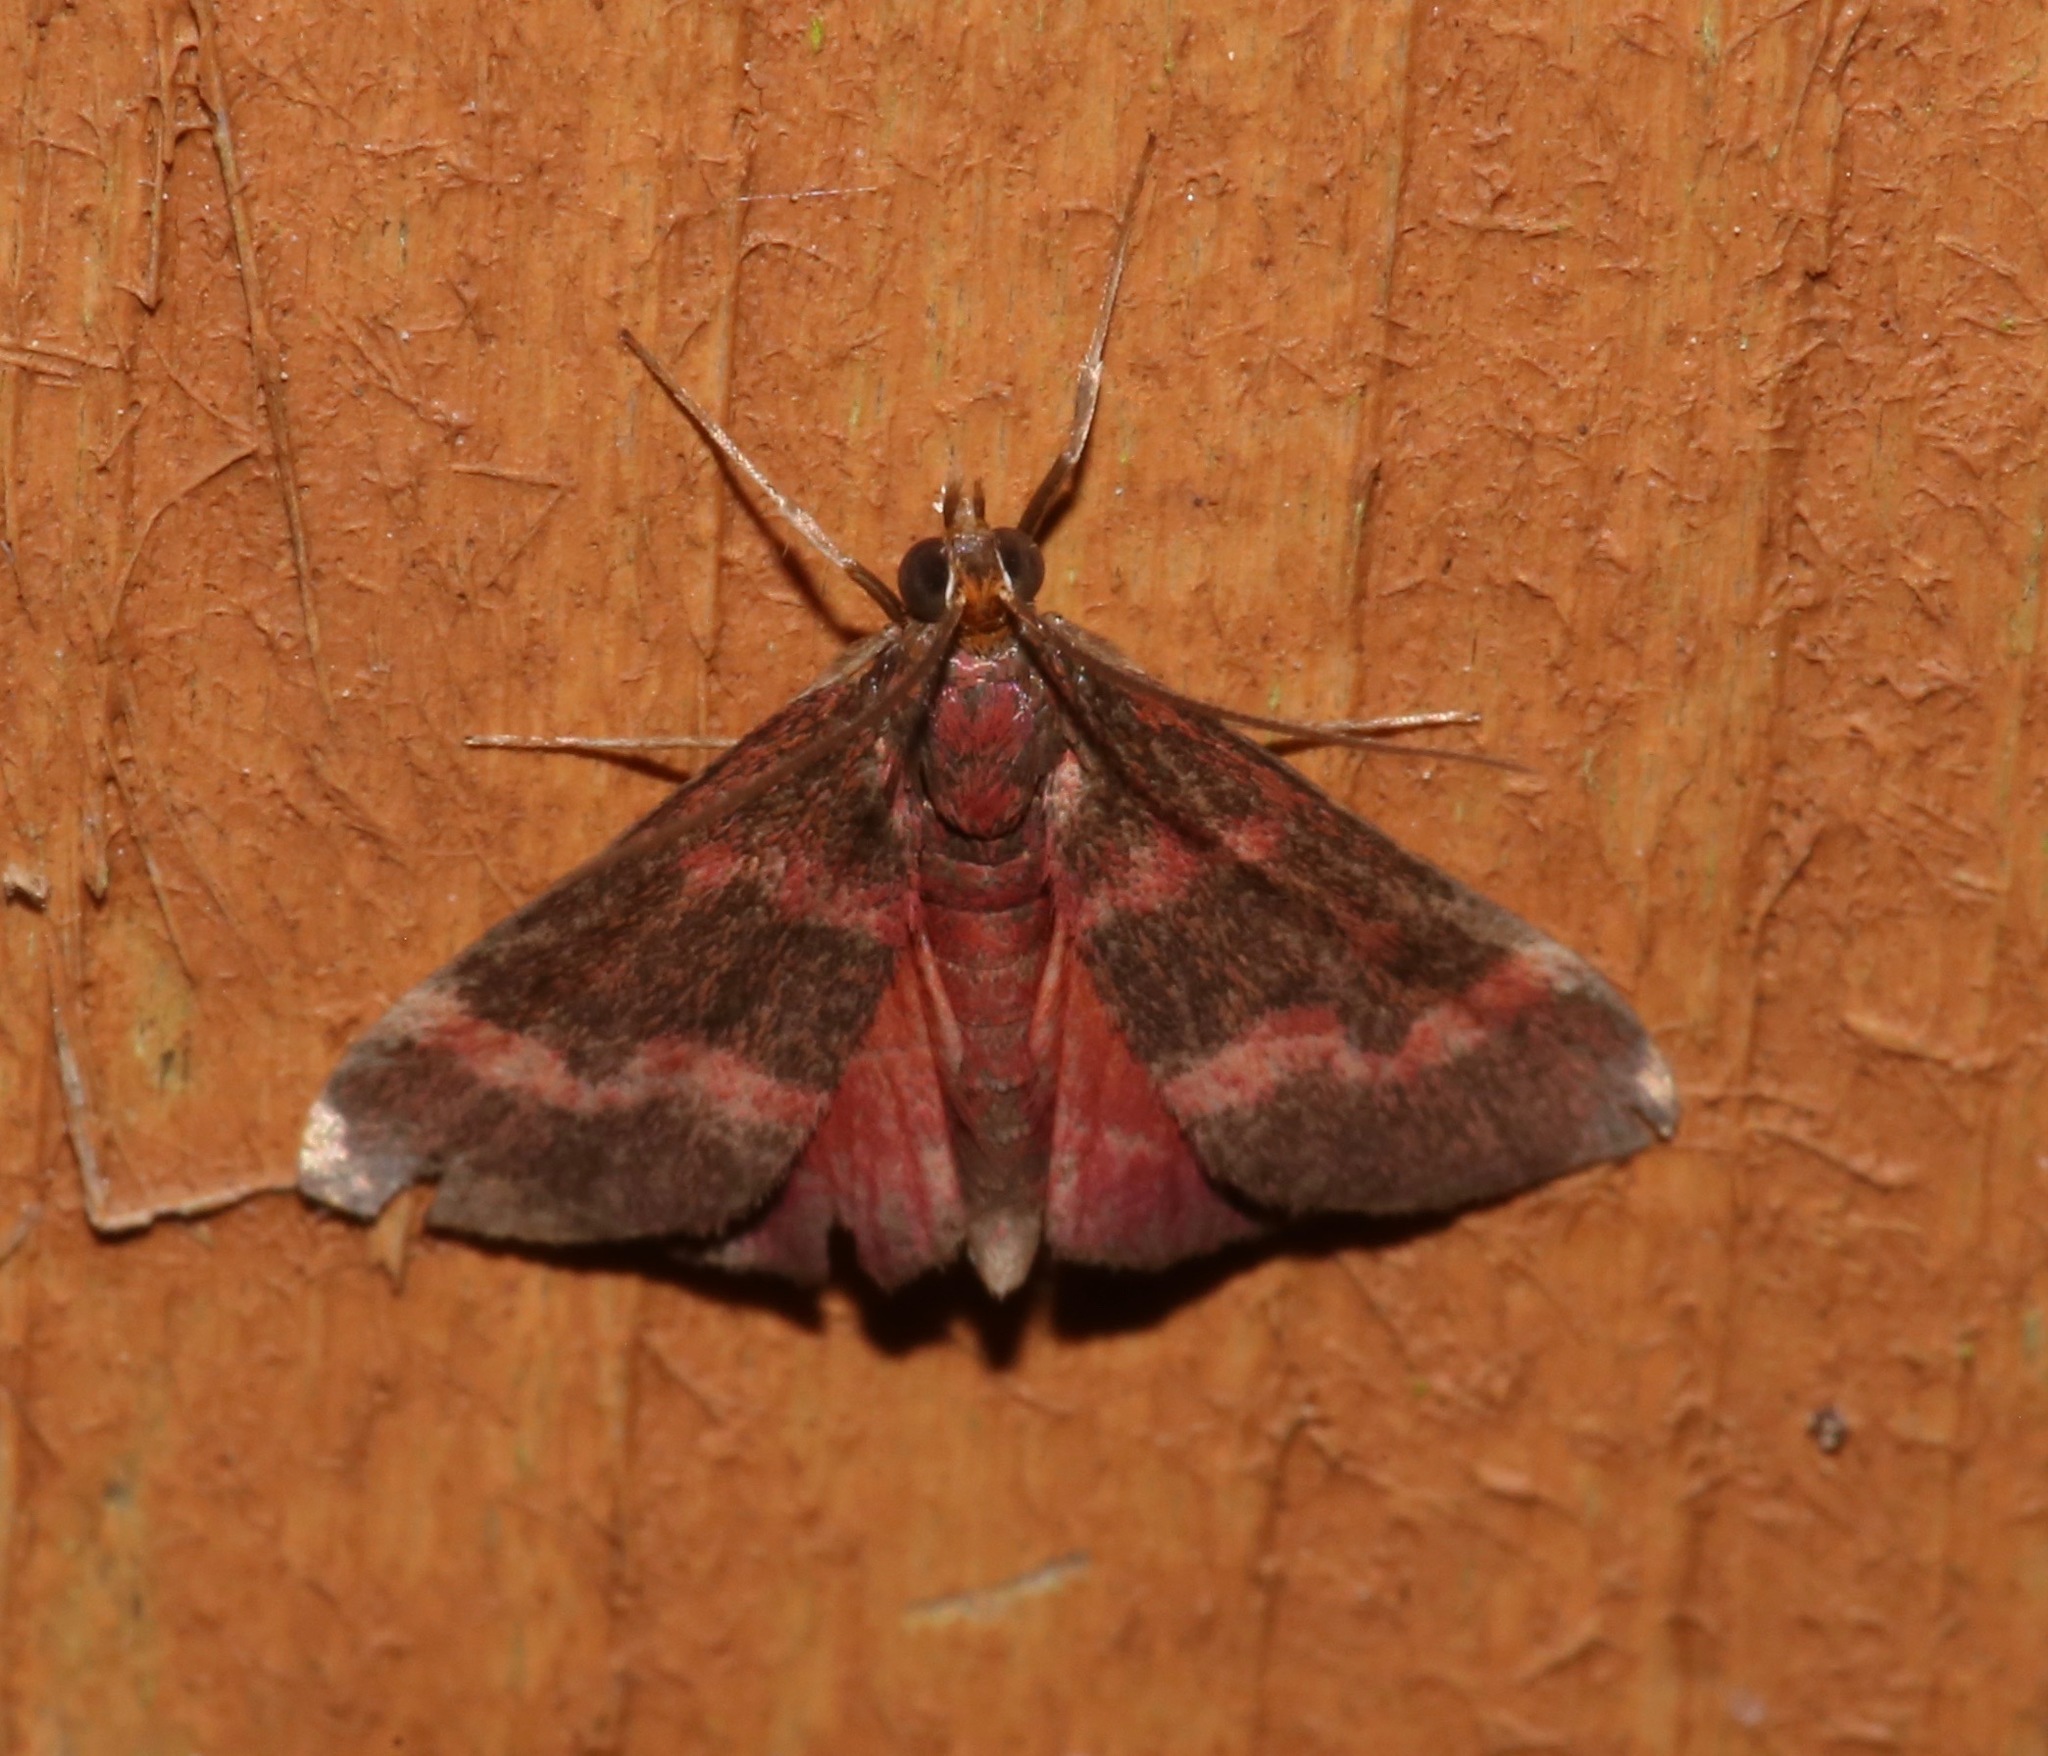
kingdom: Animalia
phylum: Arthropoda
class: Insecta
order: Lepidoptera
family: Crambidae
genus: Pyrausta
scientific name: Pyrausta tyralis
